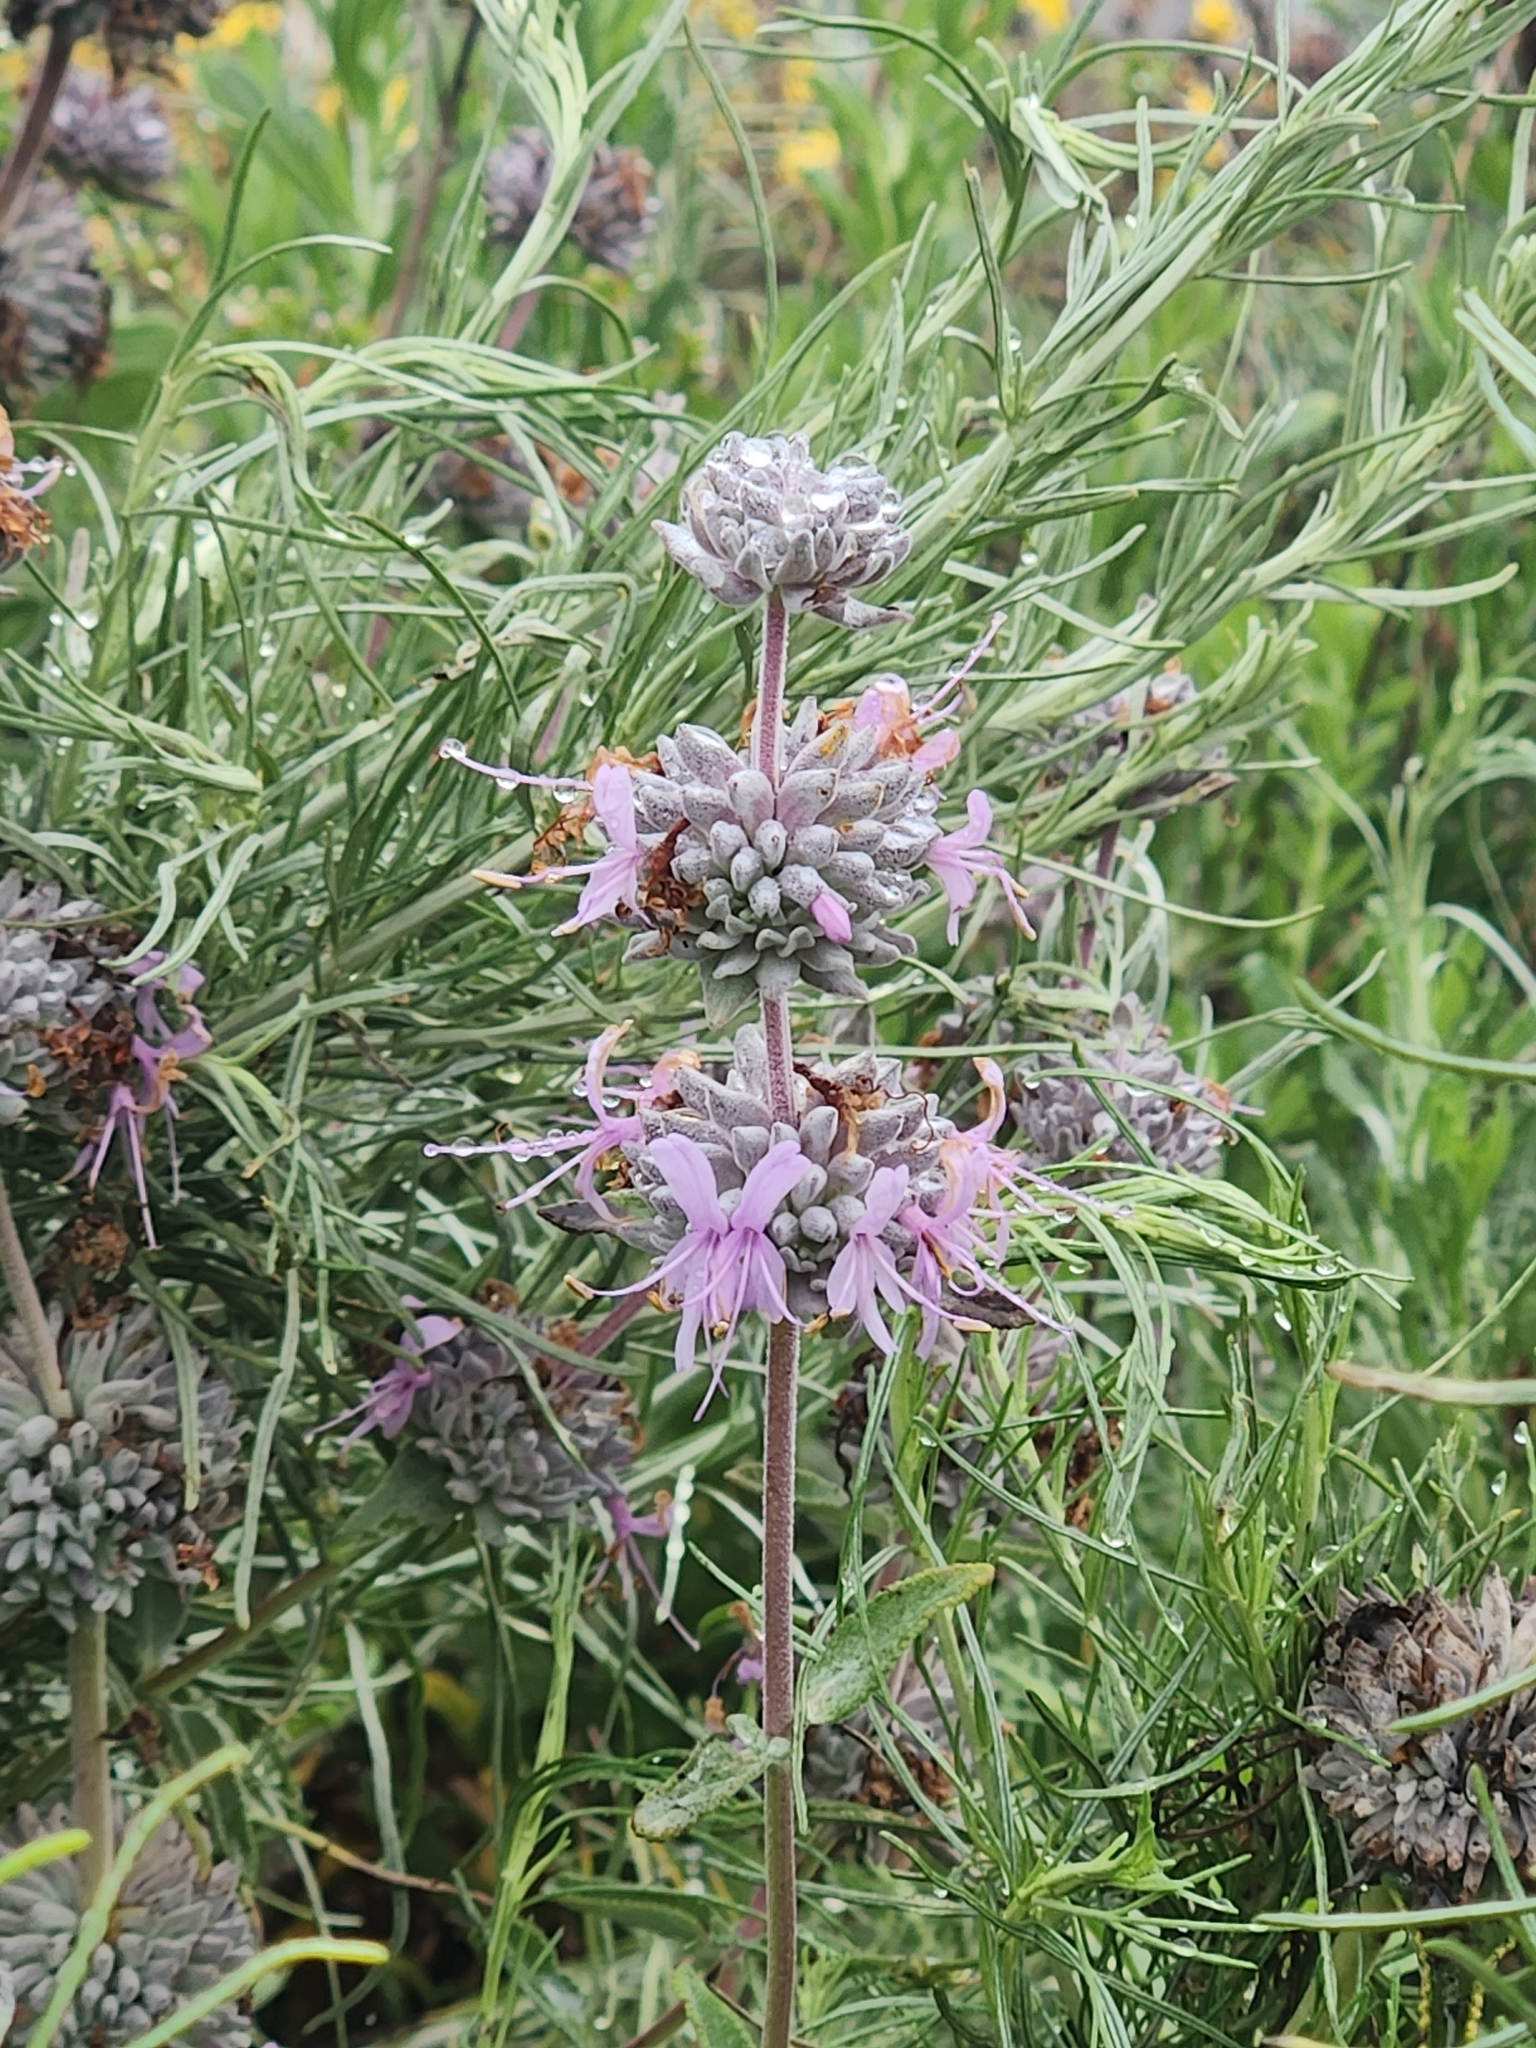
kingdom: Plantae
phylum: Tracheophyta
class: Magnoliopsida
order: Lamiales
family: Lamiaceae
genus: Salvia
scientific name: Salvia leucophylla
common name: Purple sage
